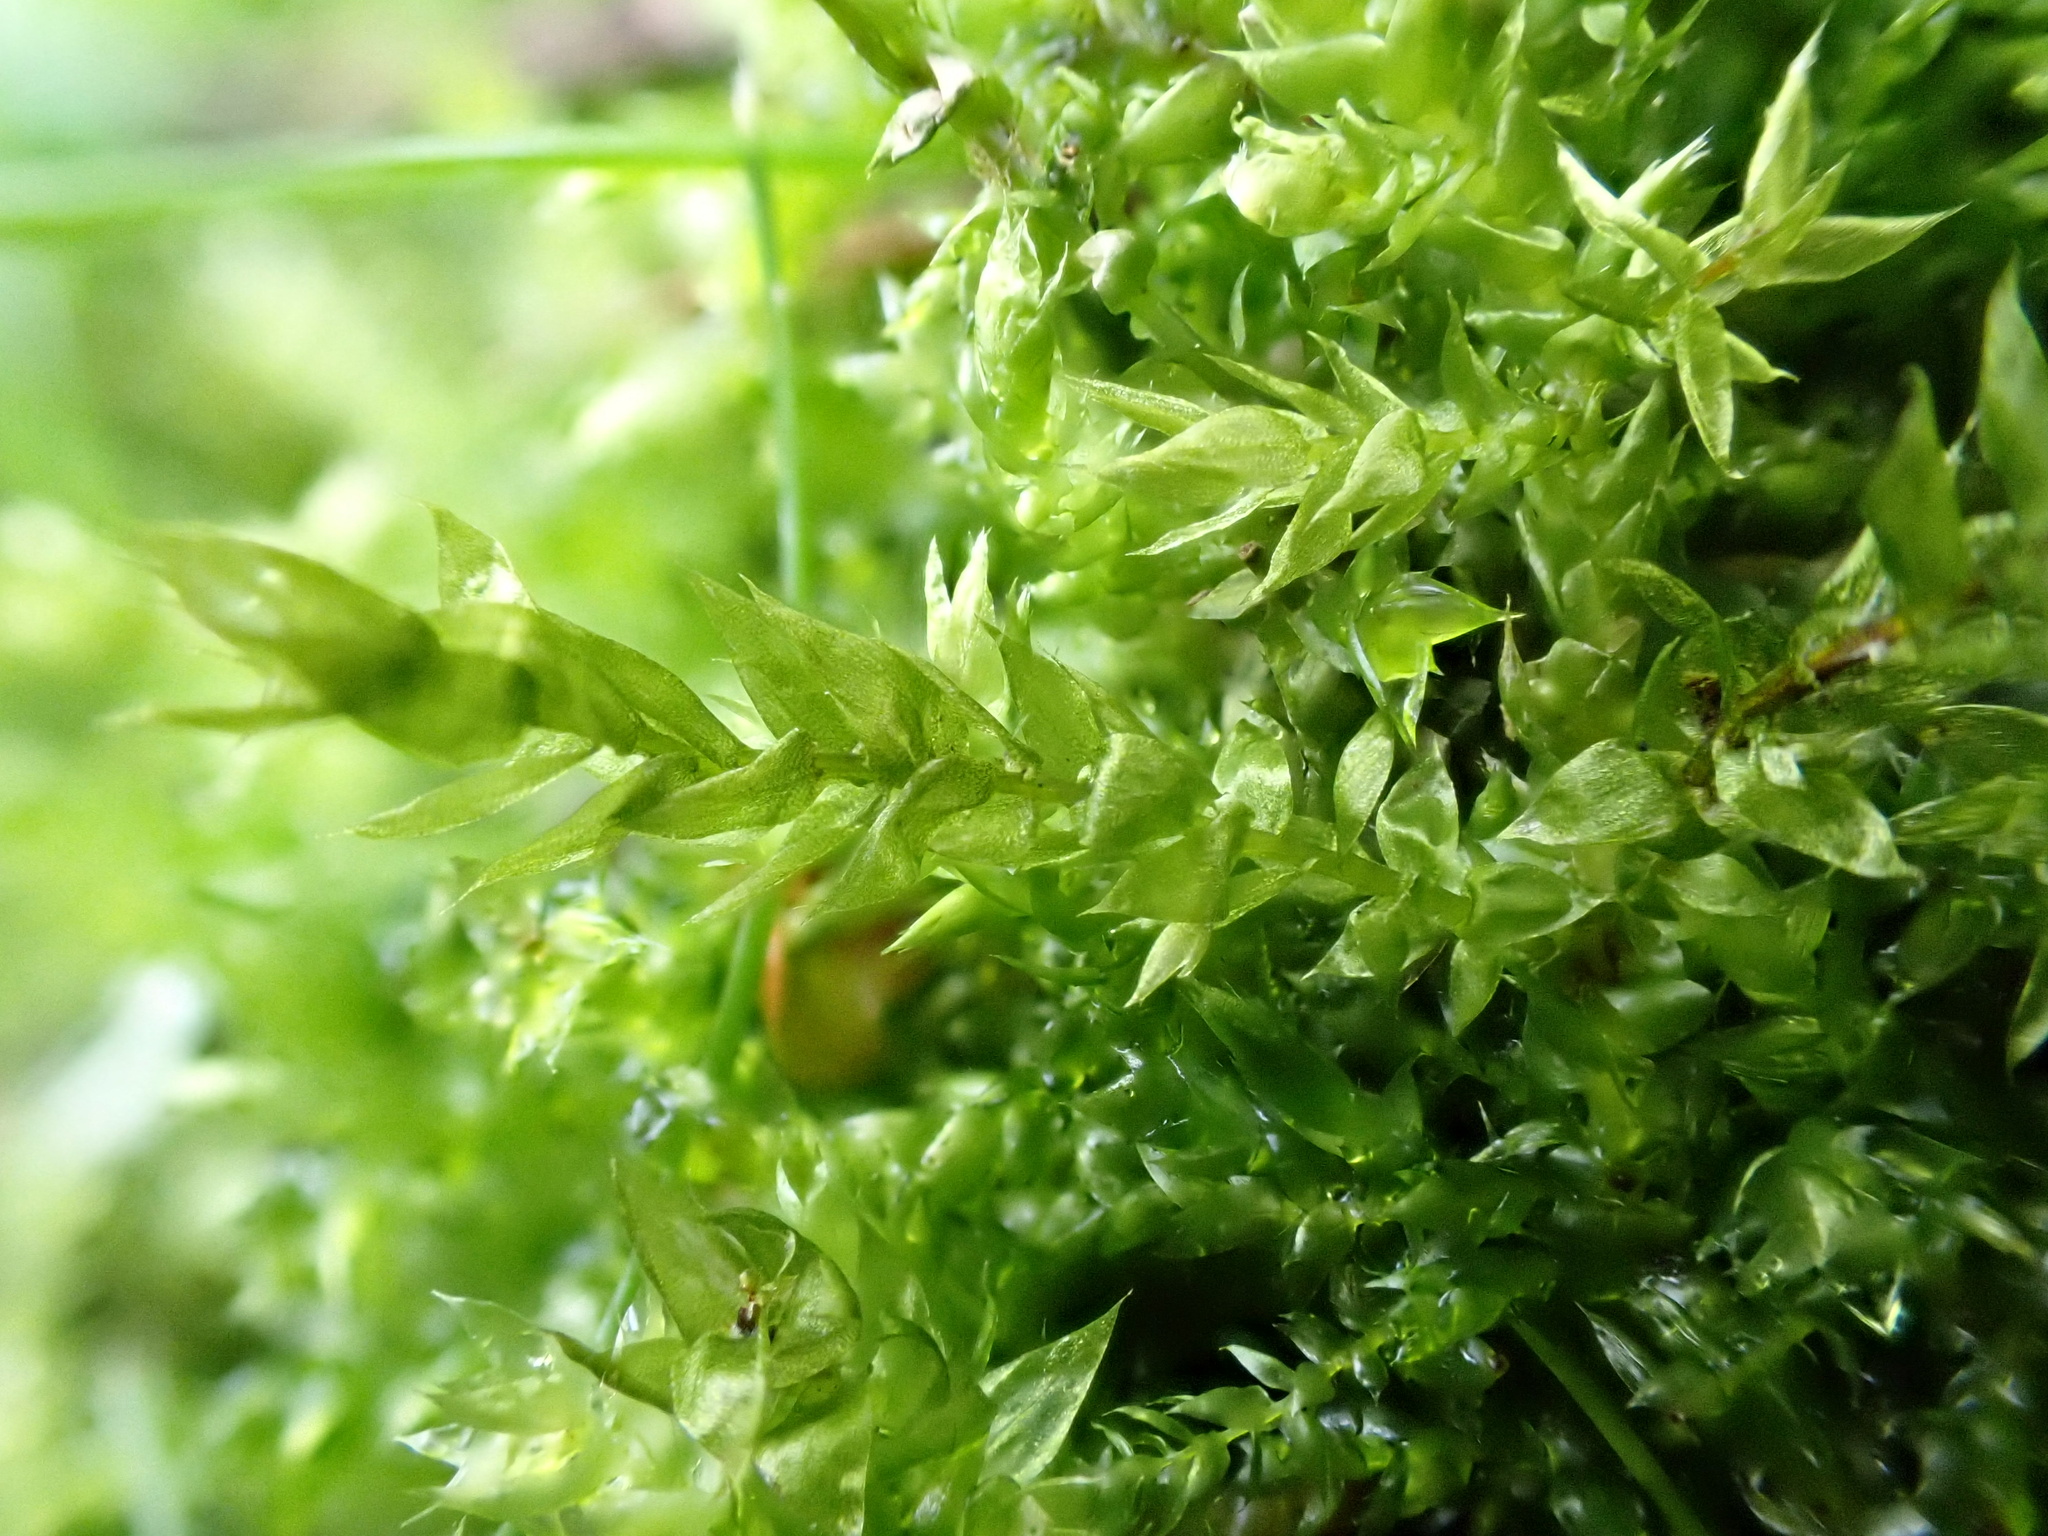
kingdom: Plantae
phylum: Bryophyta
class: Bryopsida
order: Hypnales
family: Brachytheciaceae
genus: Brachythecium
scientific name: Brachythecium rutabulum
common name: Rough-stalked feather-moss
